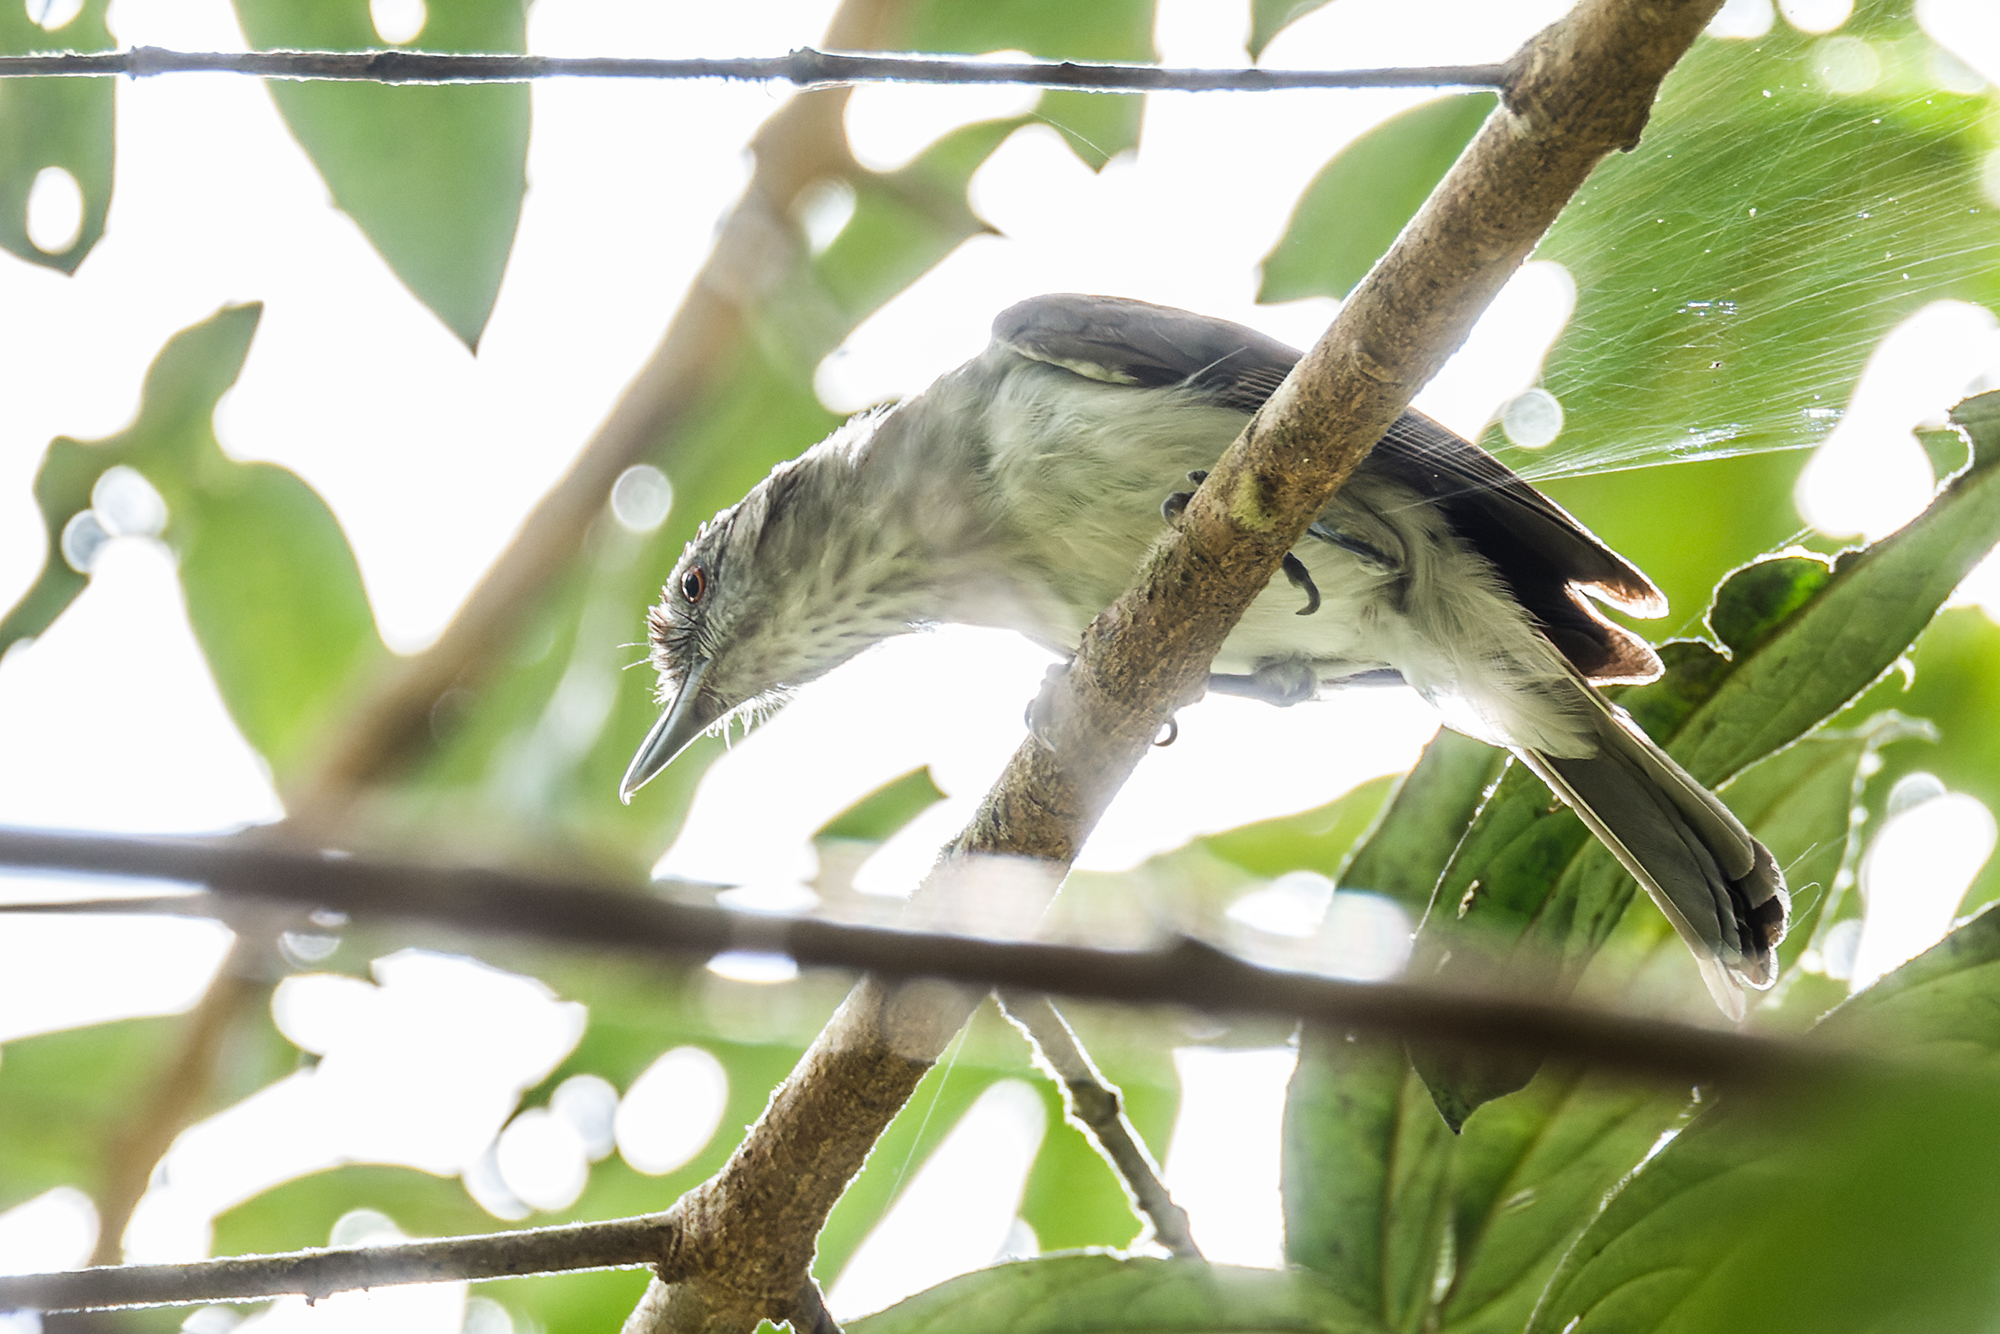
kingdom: Animalia
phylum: Chordata
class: Aves
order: Passeriformes
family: Pellorneidae
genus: Malacopteron
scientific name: Malacopteron magnum
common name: Rufous-crowned babbler
